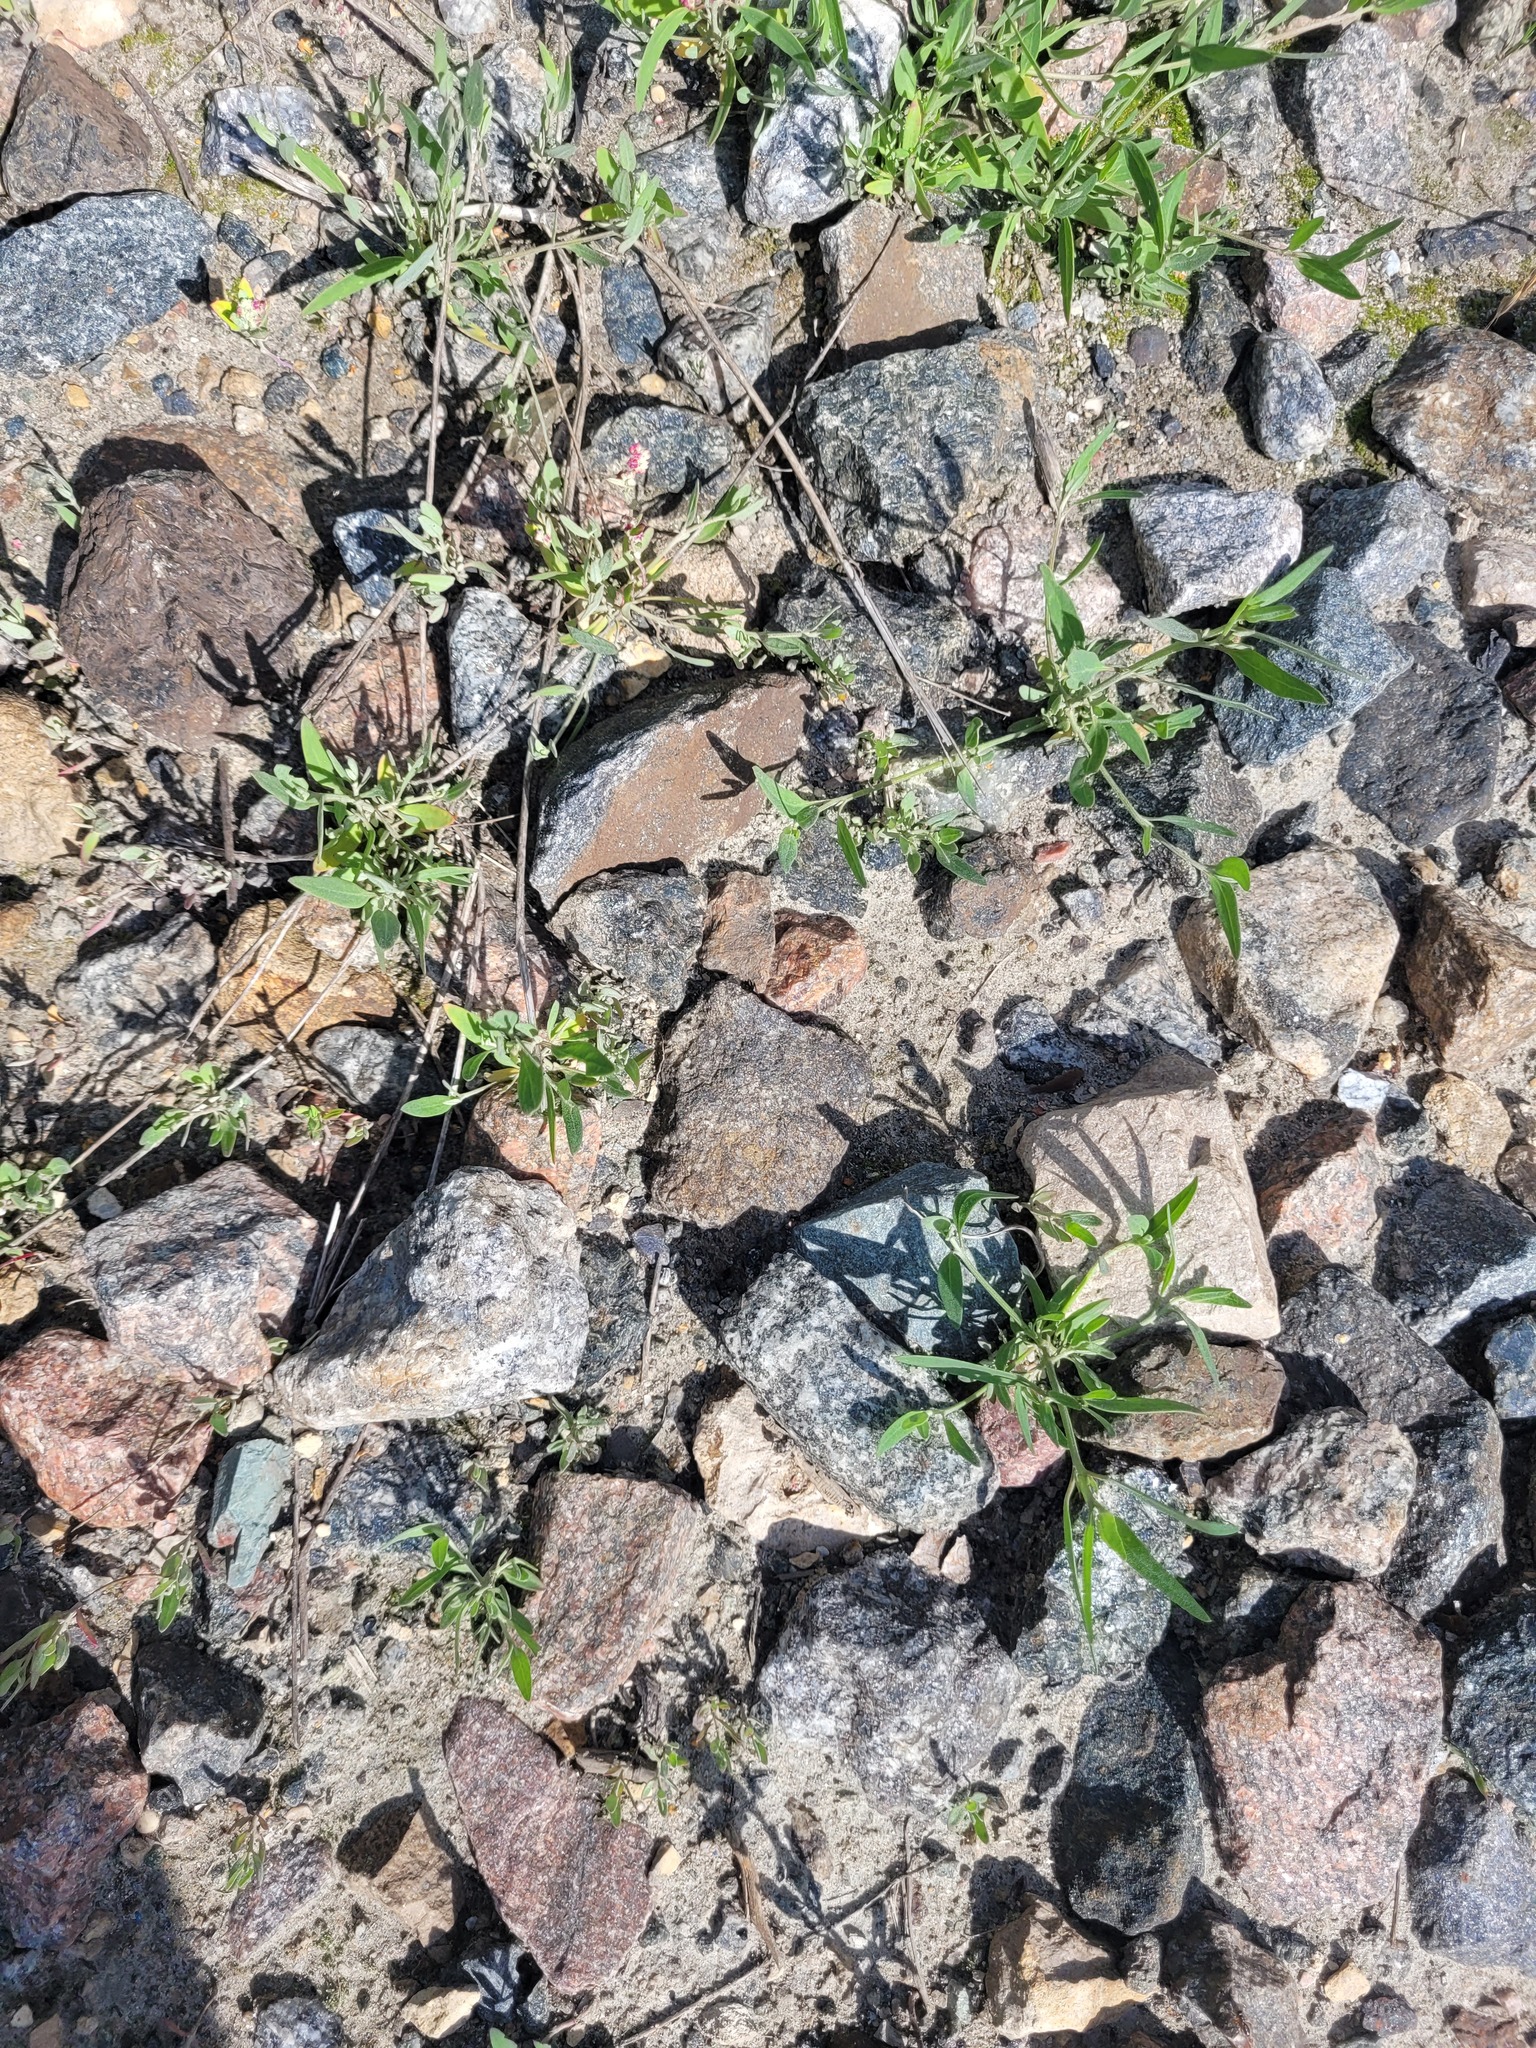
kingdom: Plantae
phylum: Tracheophyta
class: Magnoliopsida
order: Caryophyllales
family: Amaranthaceae
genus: Atriplex
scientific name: Atriplex patula
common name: Common orache
